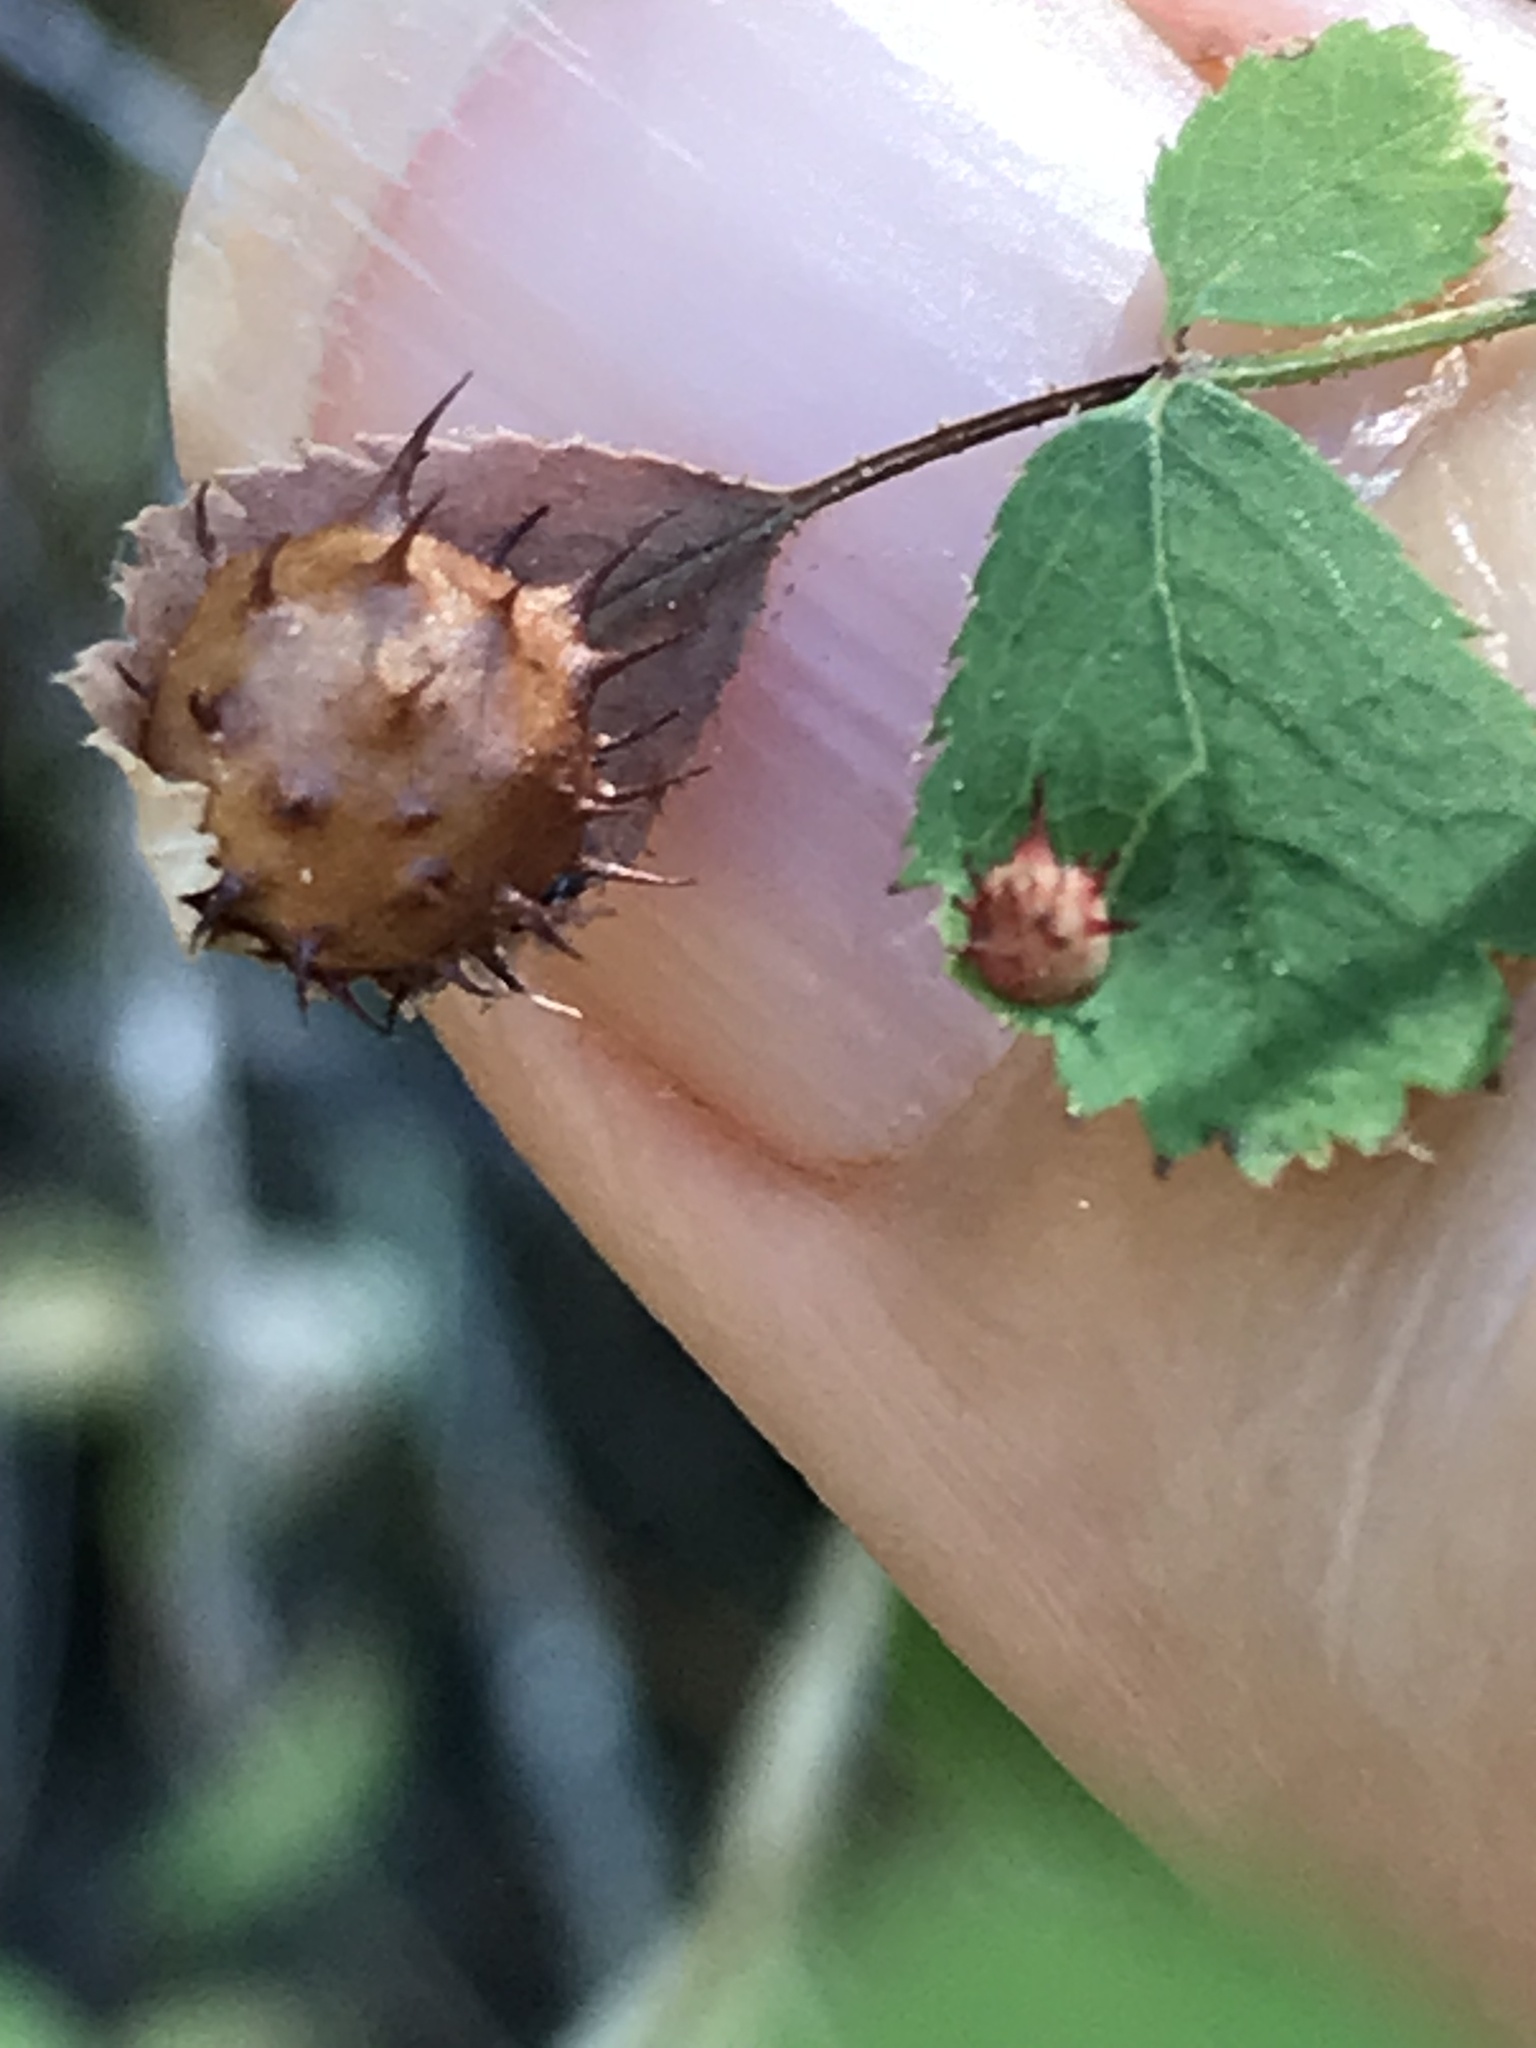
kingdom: Animalia
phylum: Arthropoda
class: Insecta
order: Hymenoptera
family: Cynipidae
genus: Diplolepis
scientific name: Diplolepis polita
